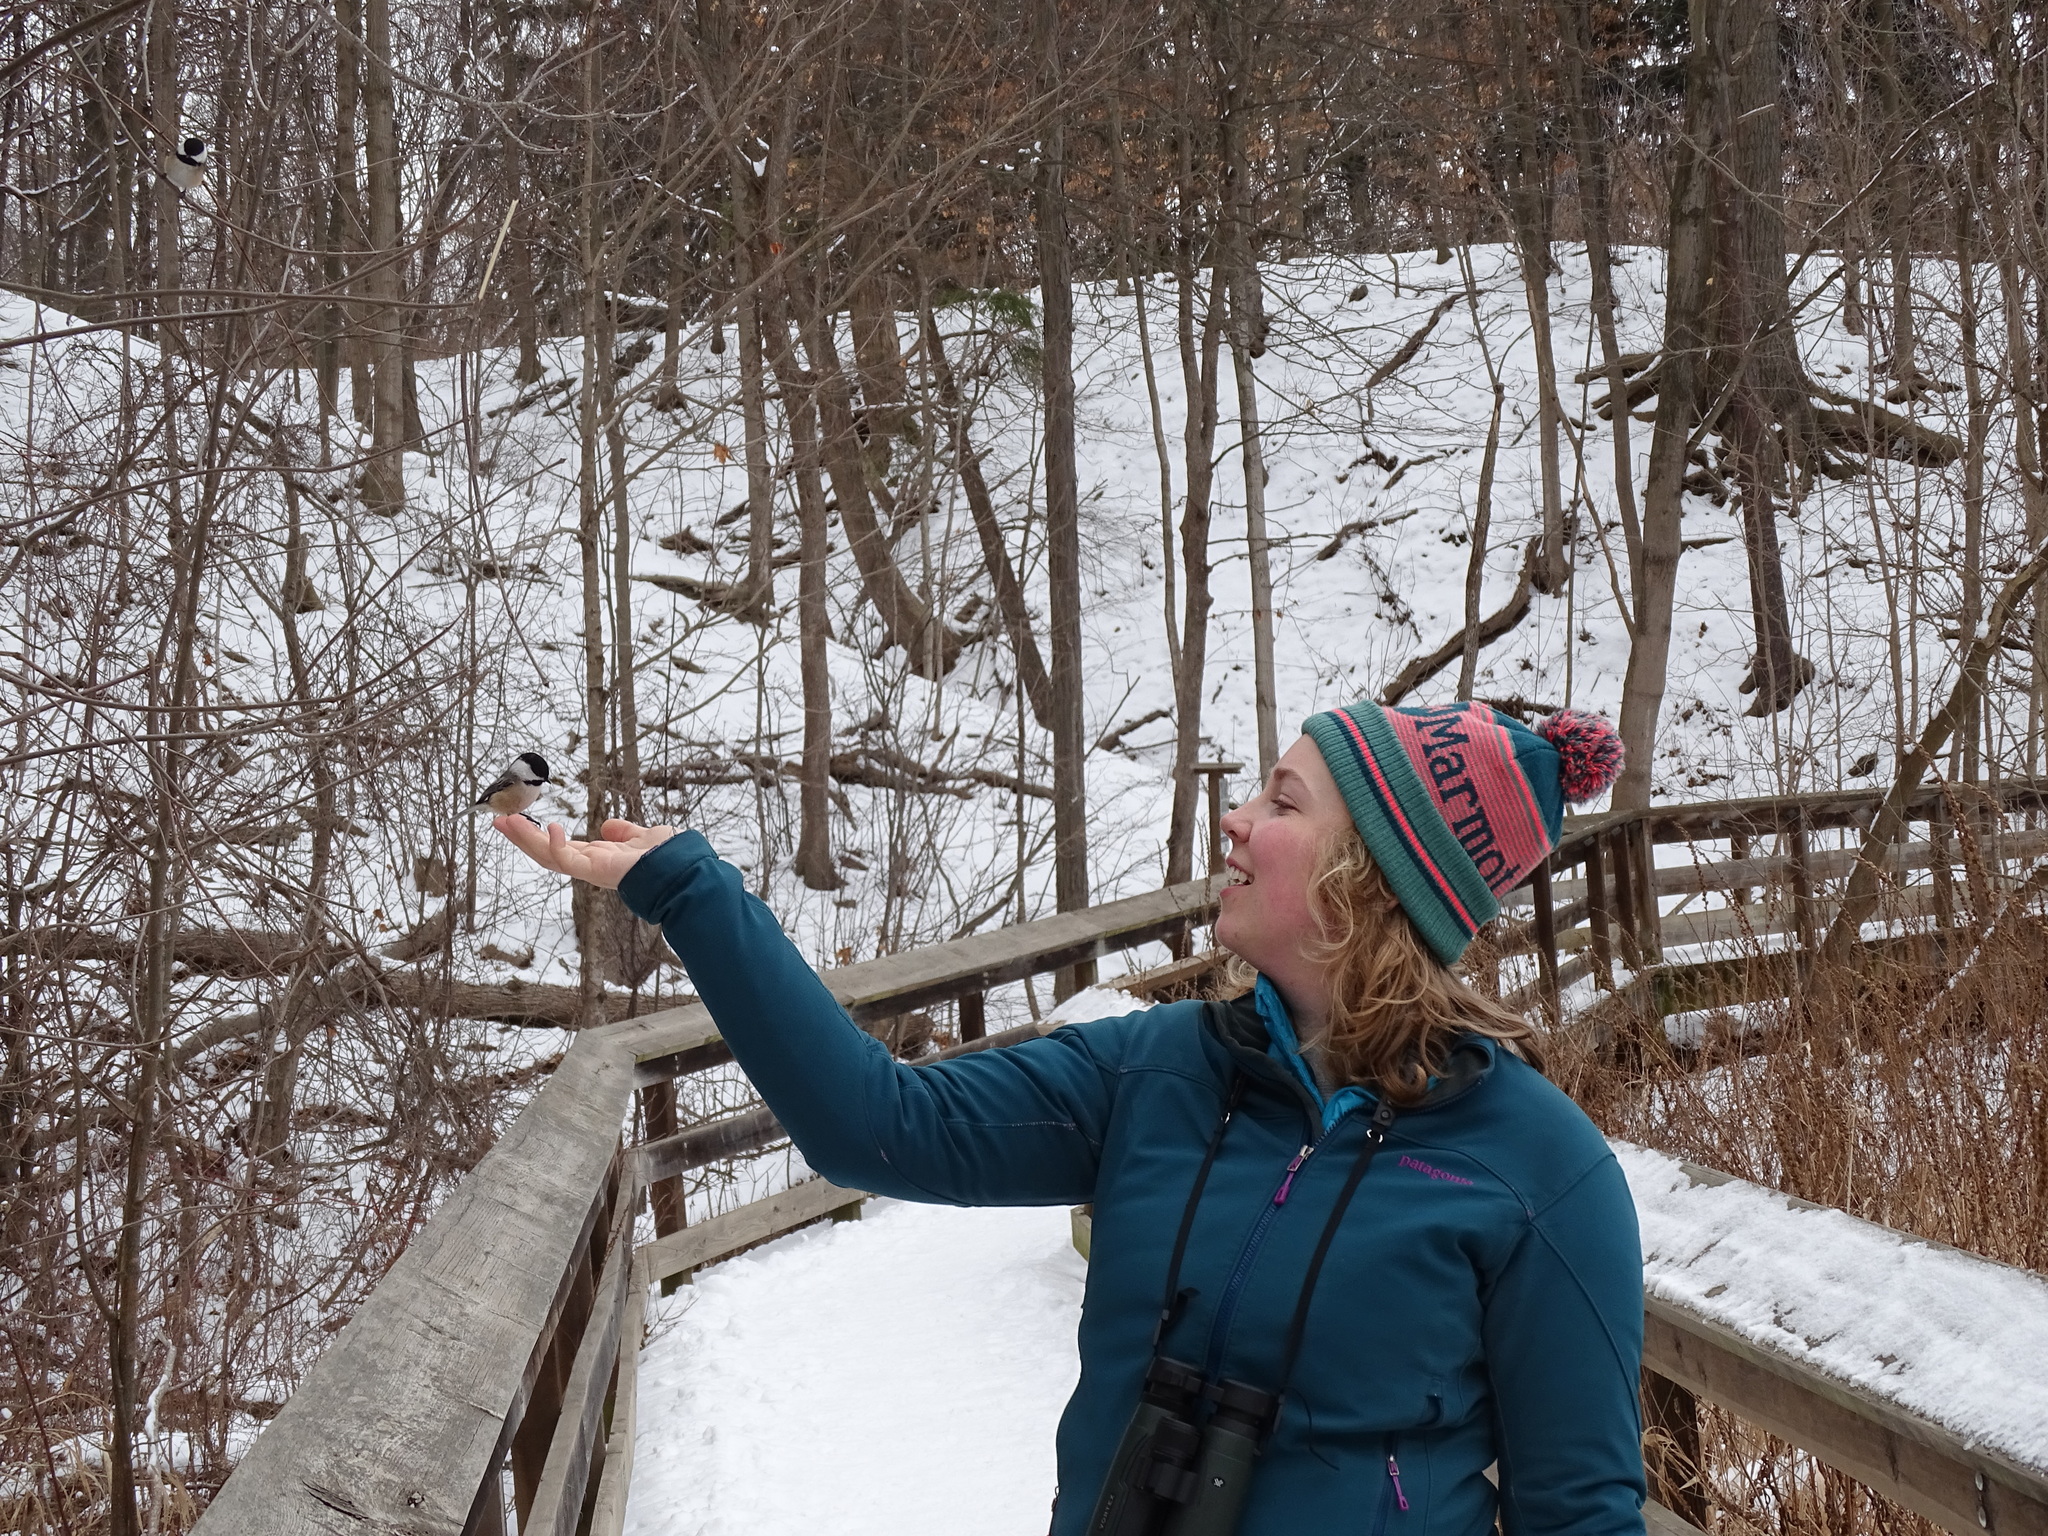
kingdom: Animalia
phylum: Chordata
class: Aves
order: Passeriformes
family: Paridae
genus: Poecile
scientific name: Poecile atricapillus
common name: Black-capped chickadee
